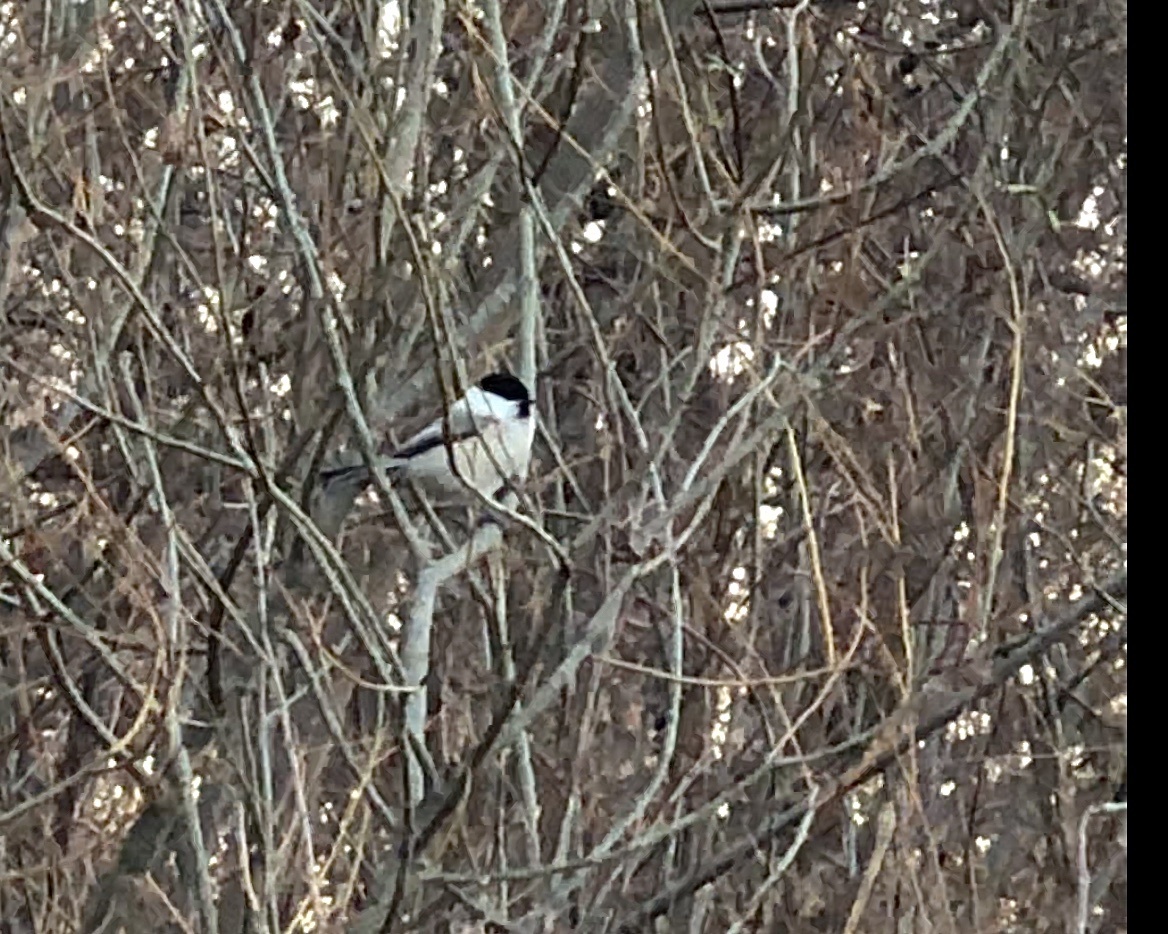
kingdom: Animalia
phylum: Chordata
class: Aves
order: Passeriformes
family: Paridae
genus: Poecile
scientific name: Poecile montanus
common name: Willow tit
